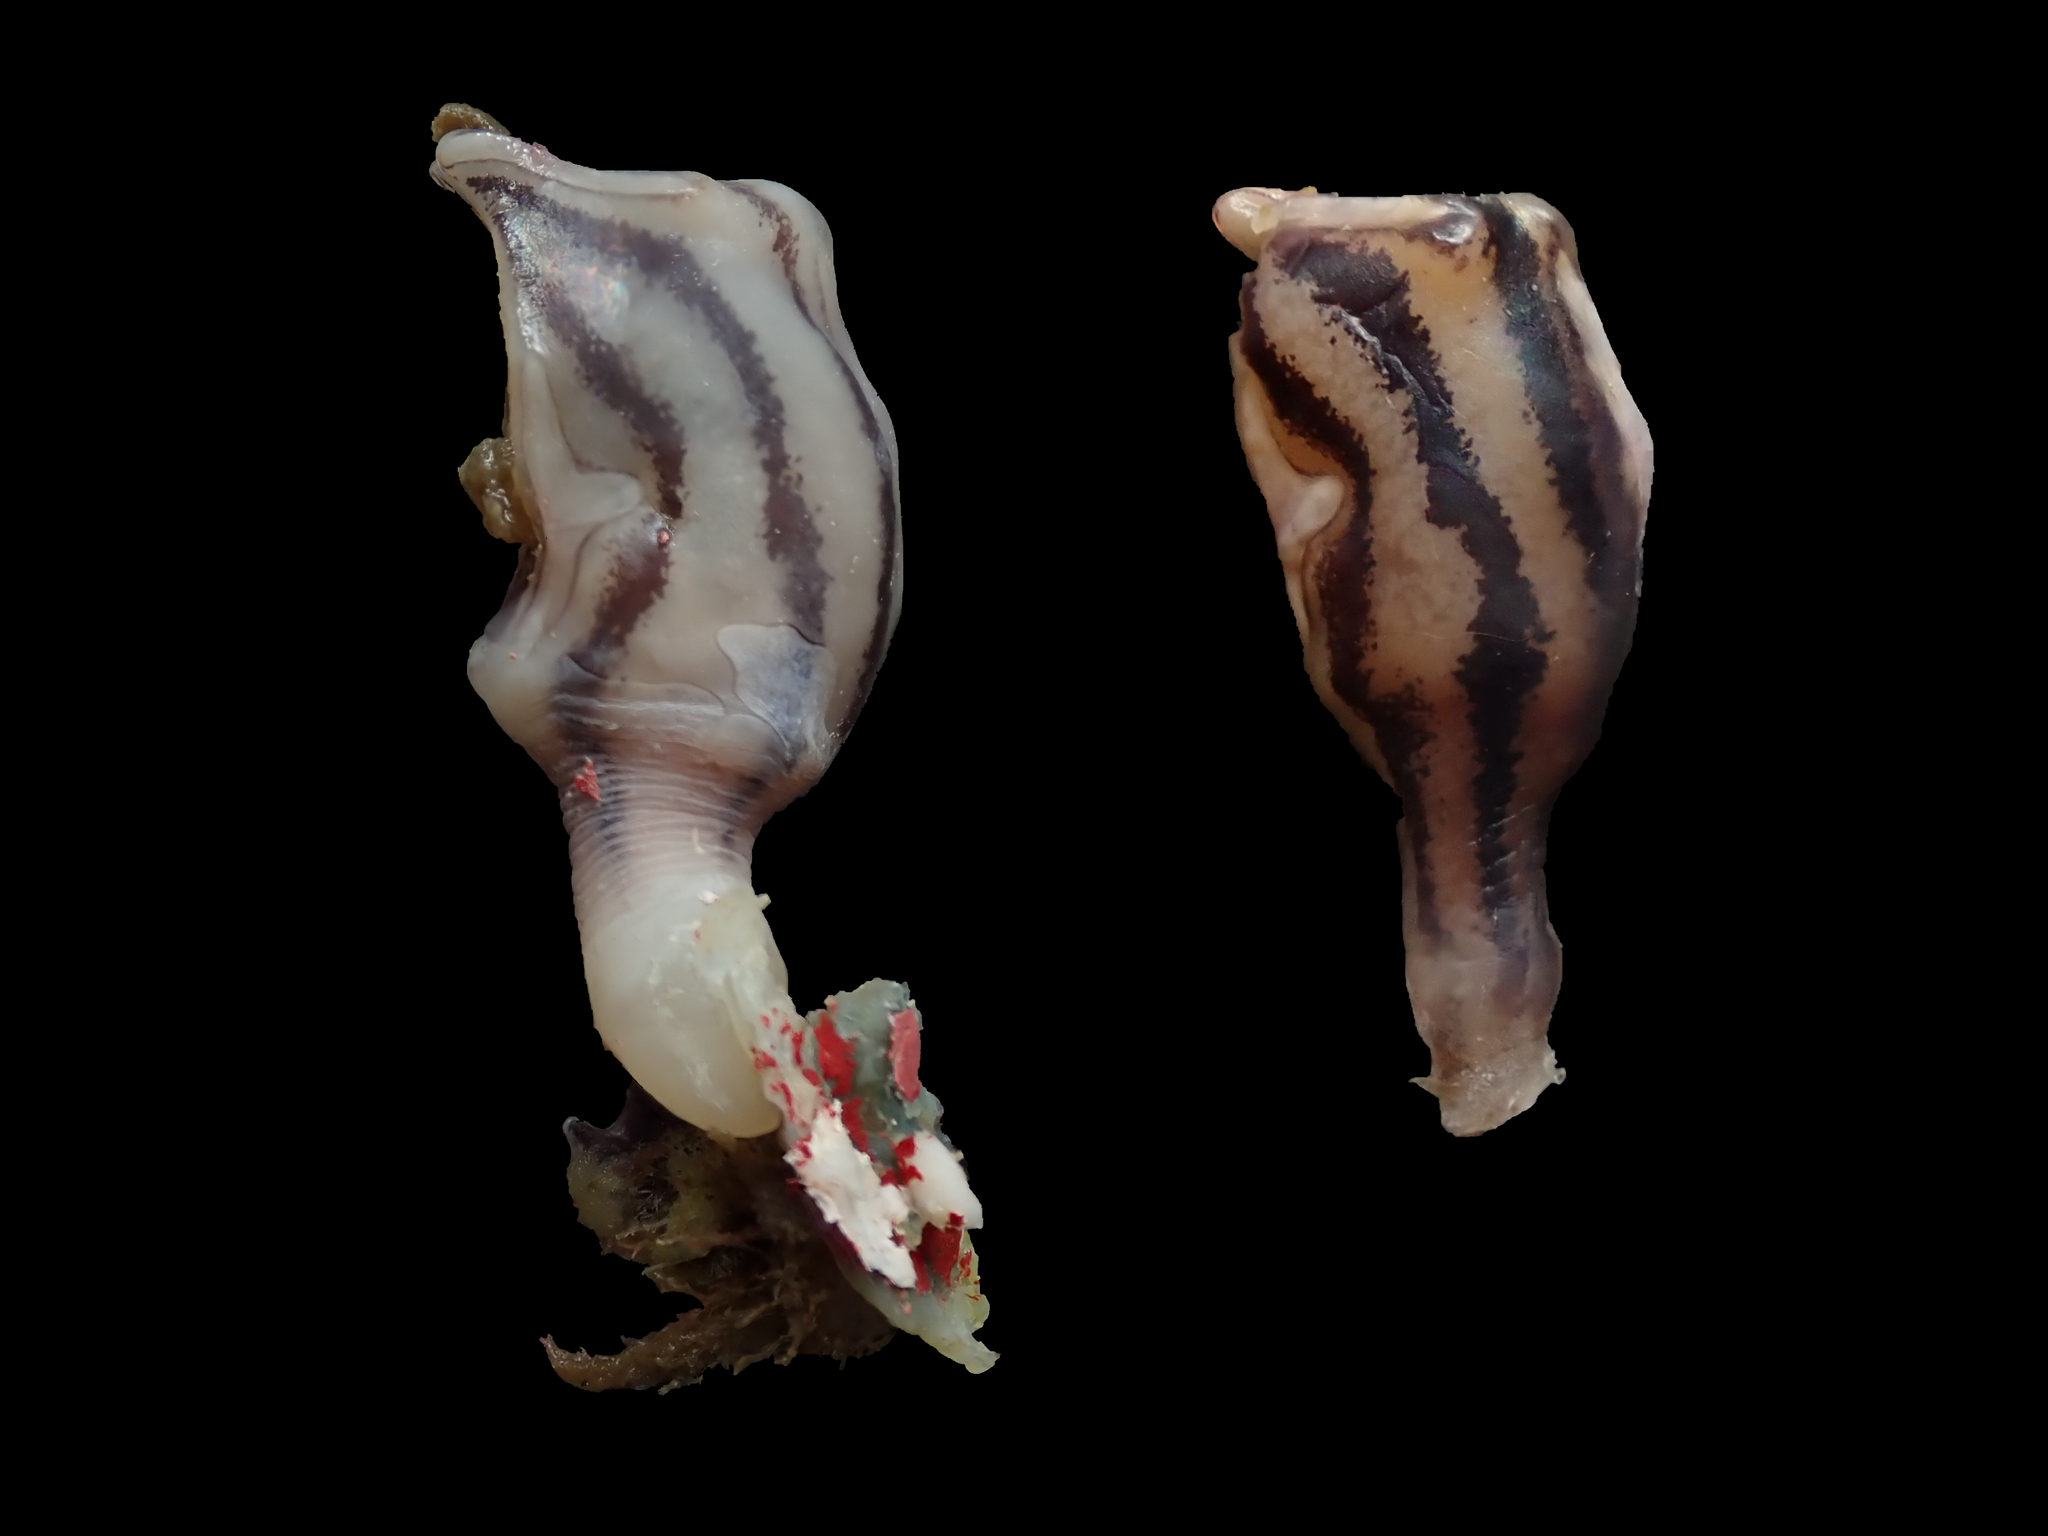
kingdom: Animalia
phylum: Arthropoda
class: Maxillopoda
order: Pedunculata
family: Lepadidae
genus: Conchoderma
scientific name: Conchoderma virgatum
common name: Striped gooseneck barnacle
